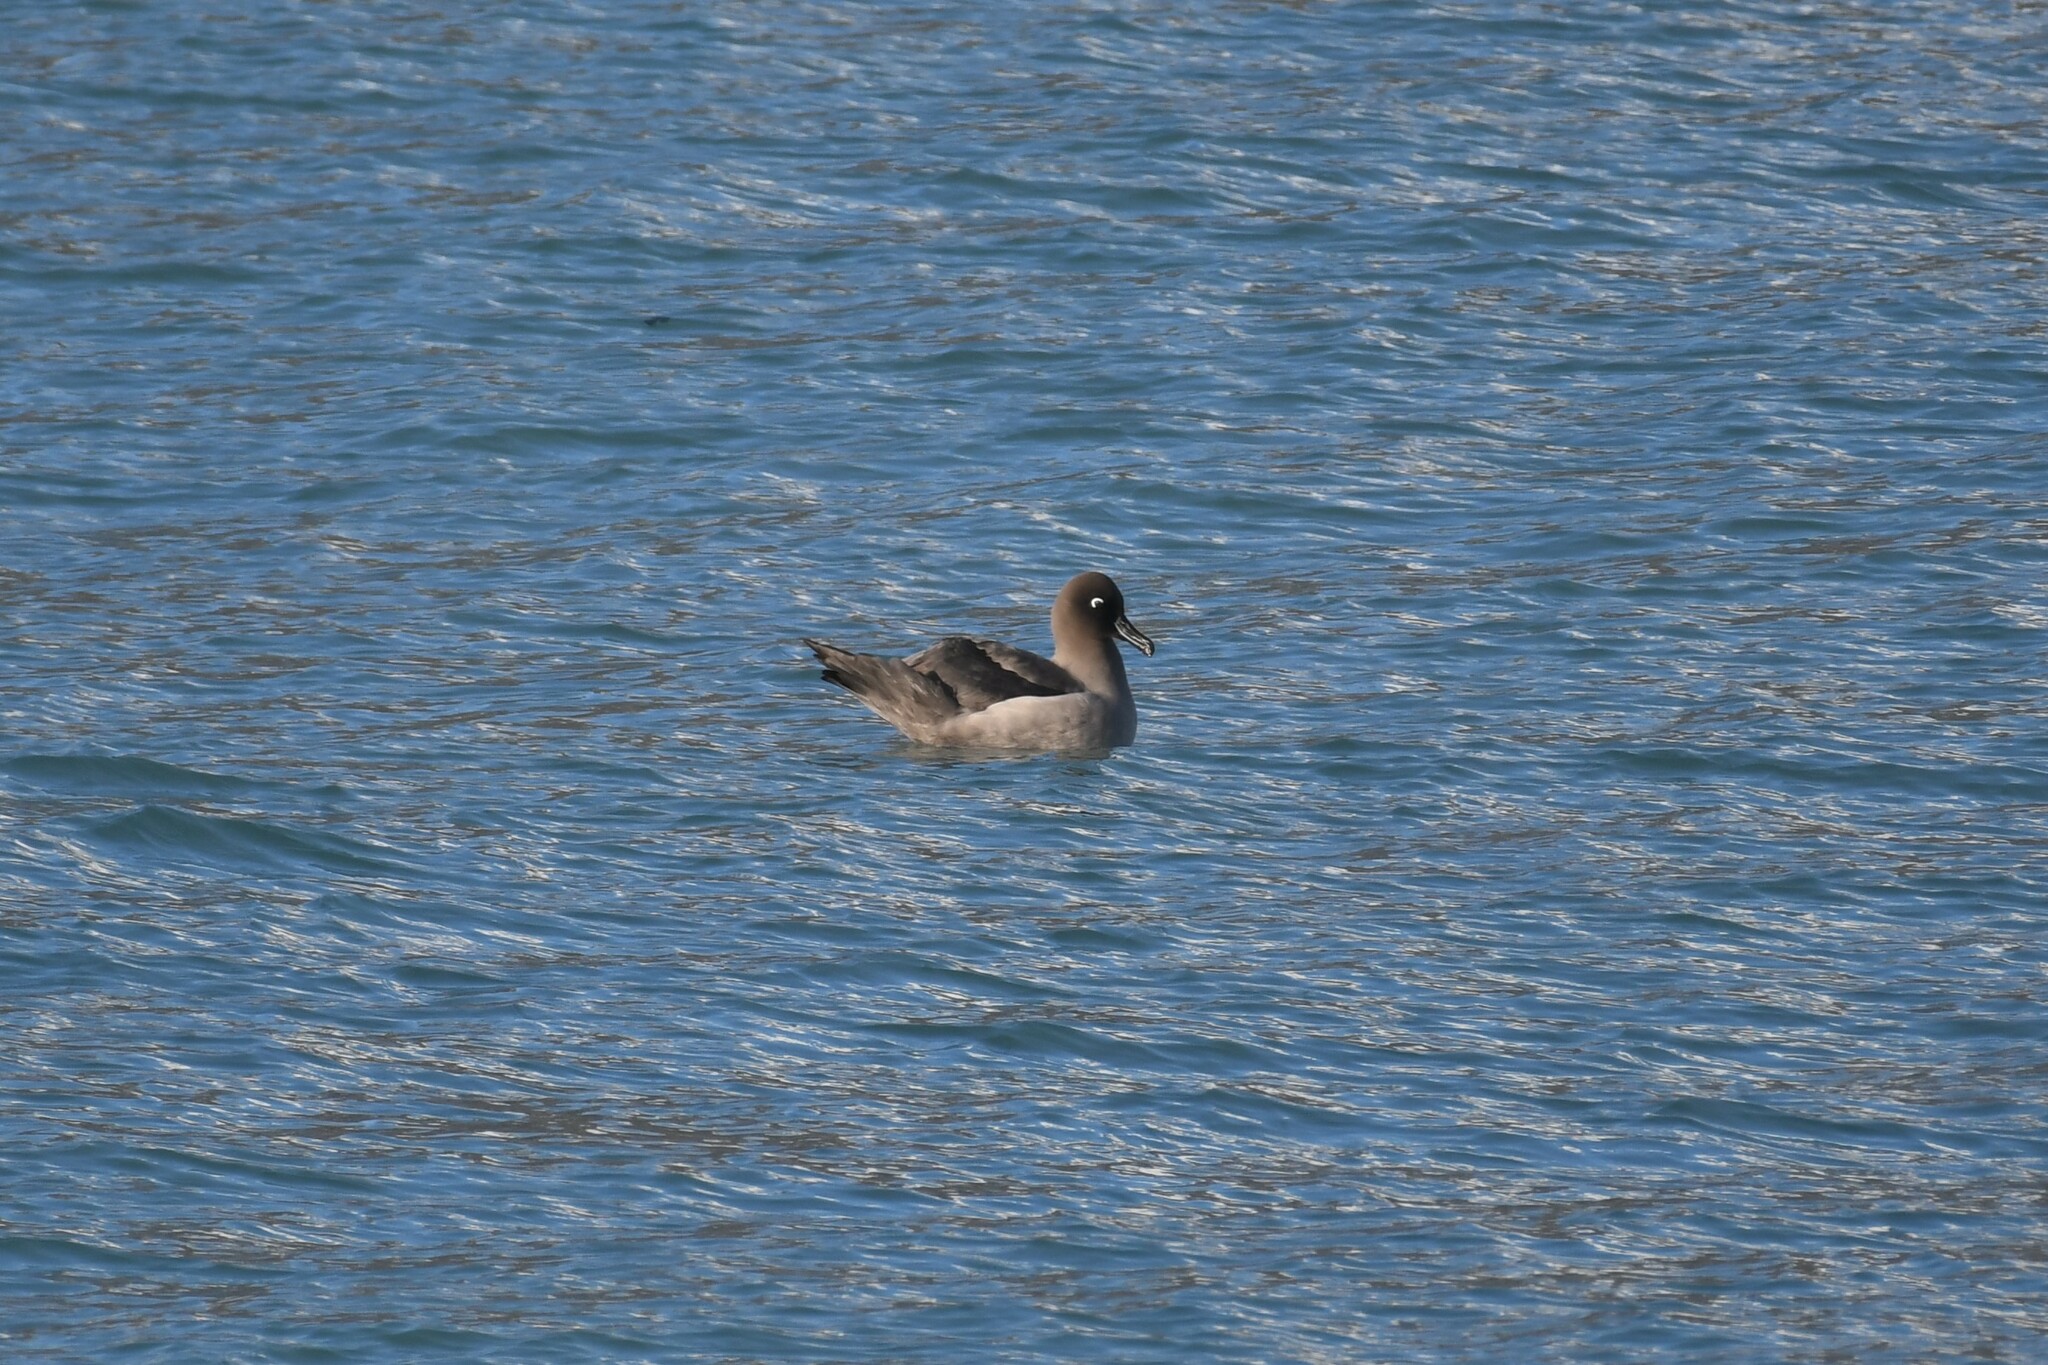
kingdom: Animalia
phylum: Chordata
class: Aves
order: Procellariiformes
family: Diomedeidae
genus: Phoebetria
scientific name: Phoebetria palpebrata
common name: Light-mantled albatross
